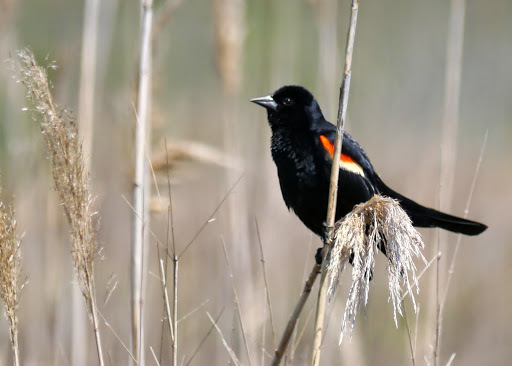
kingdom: Animalia
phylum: Chordata
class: Aves
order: Passeriformes
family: Icteridae
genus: Agelaius
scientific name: Agelaius phoeniceus
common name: Red-winged blackbird
